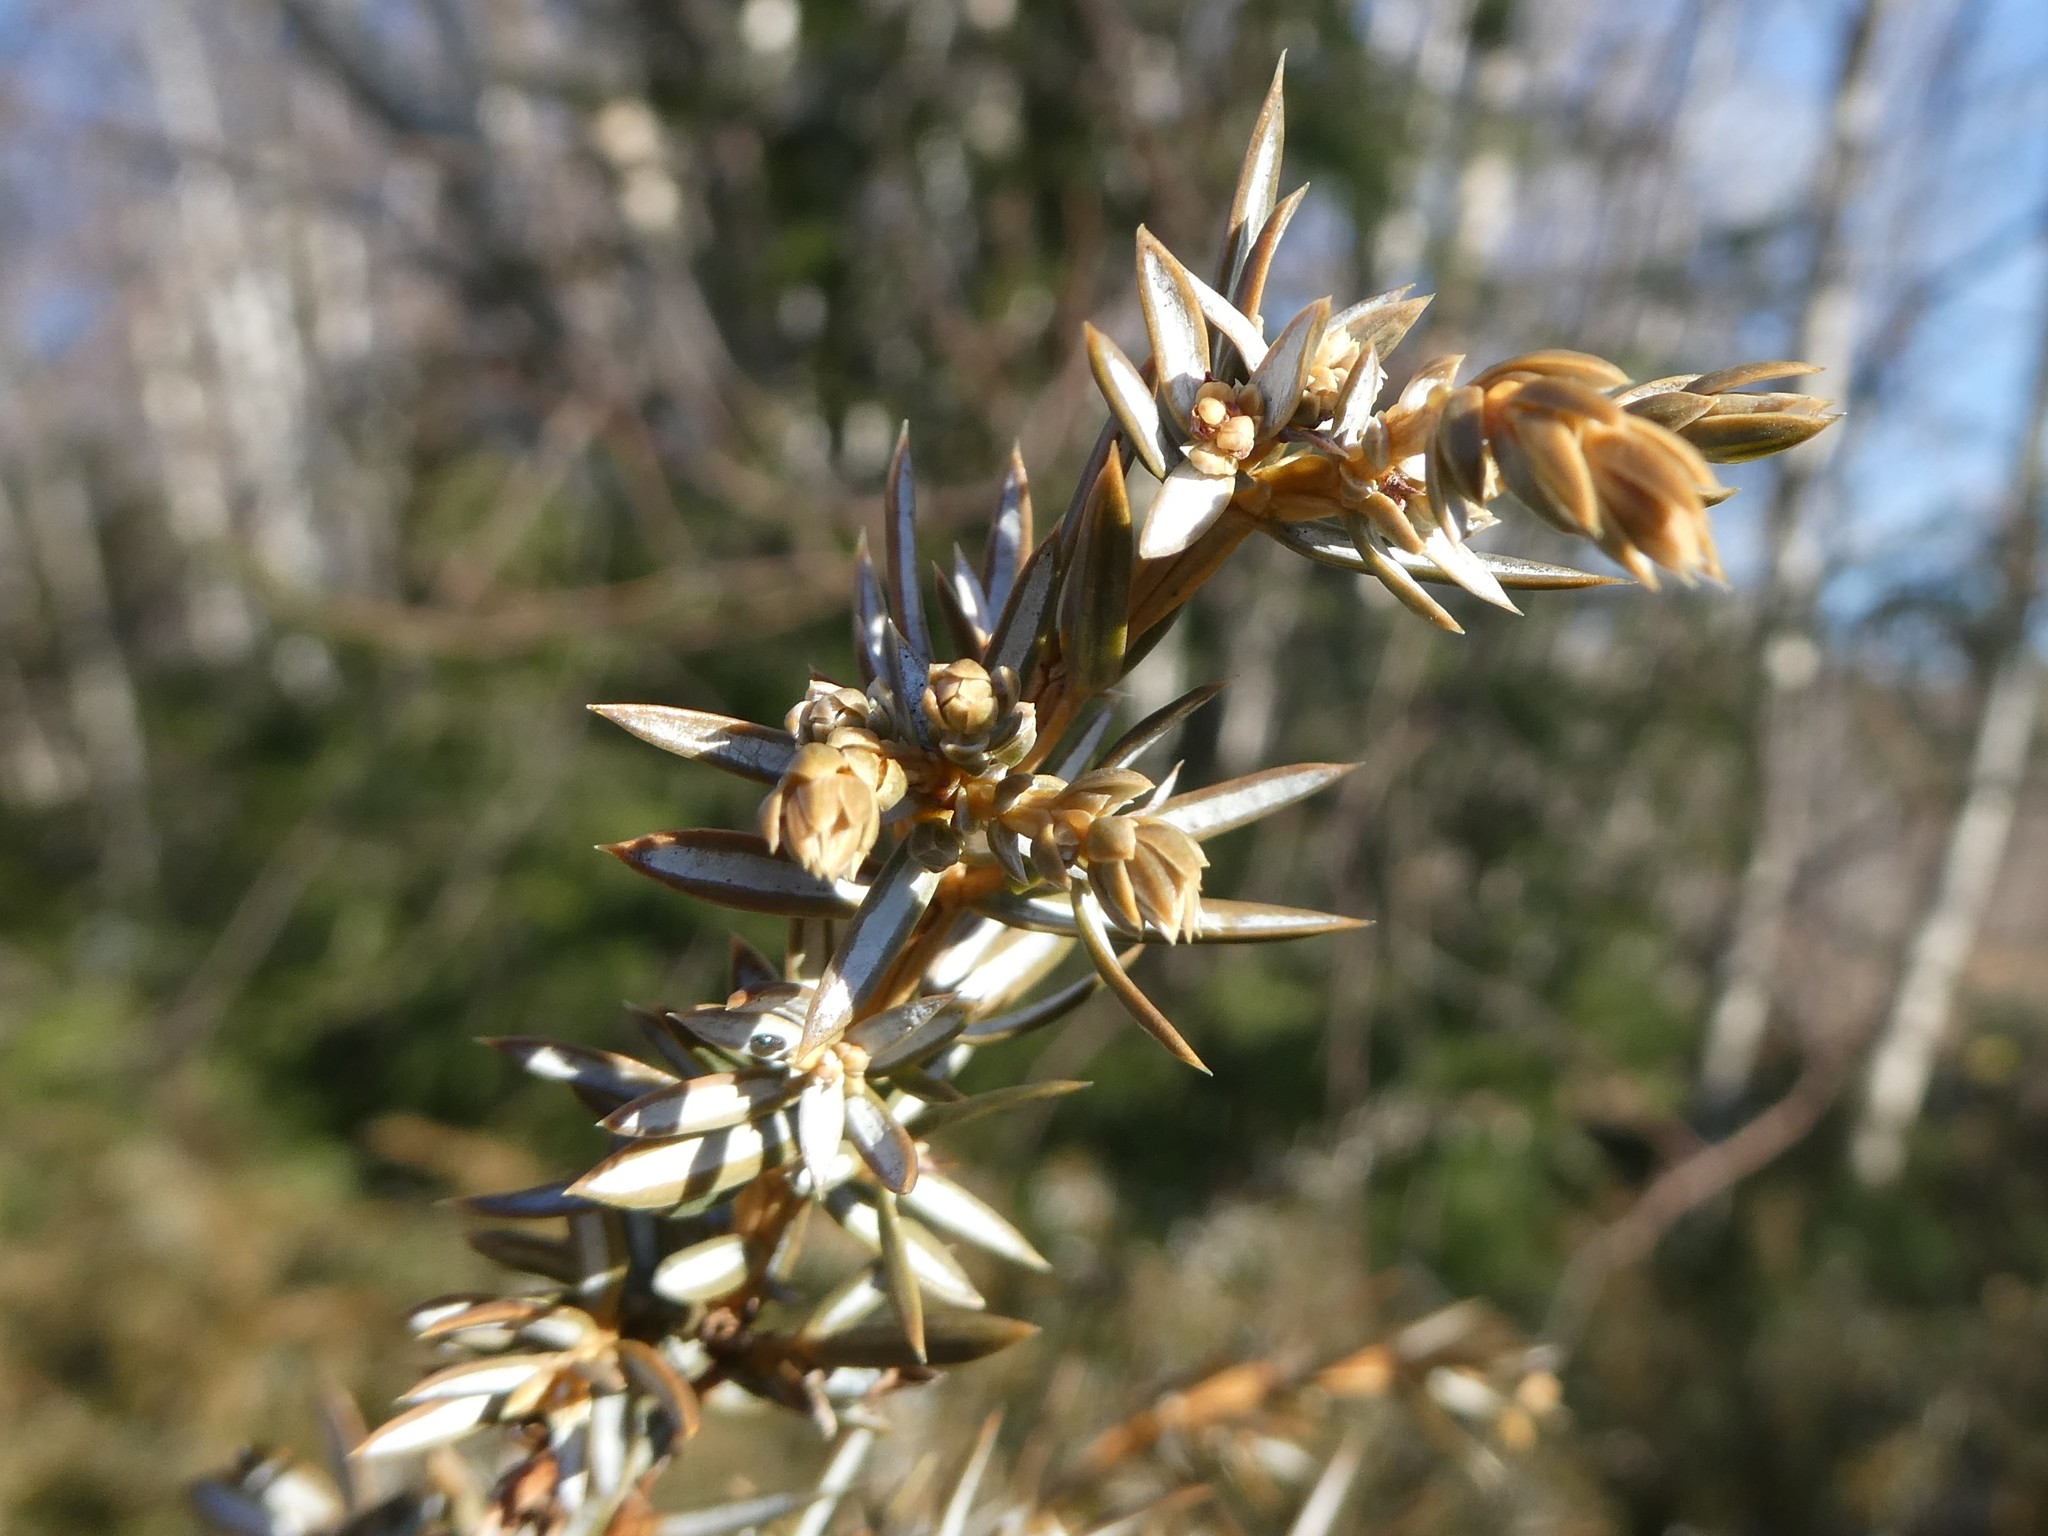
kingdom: Plantae
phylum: Tracheophyta
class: Pinopsida
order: Pinales
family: Cupressaceae
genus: Juniperus
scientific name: Juniperus communis
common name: Common juniper
